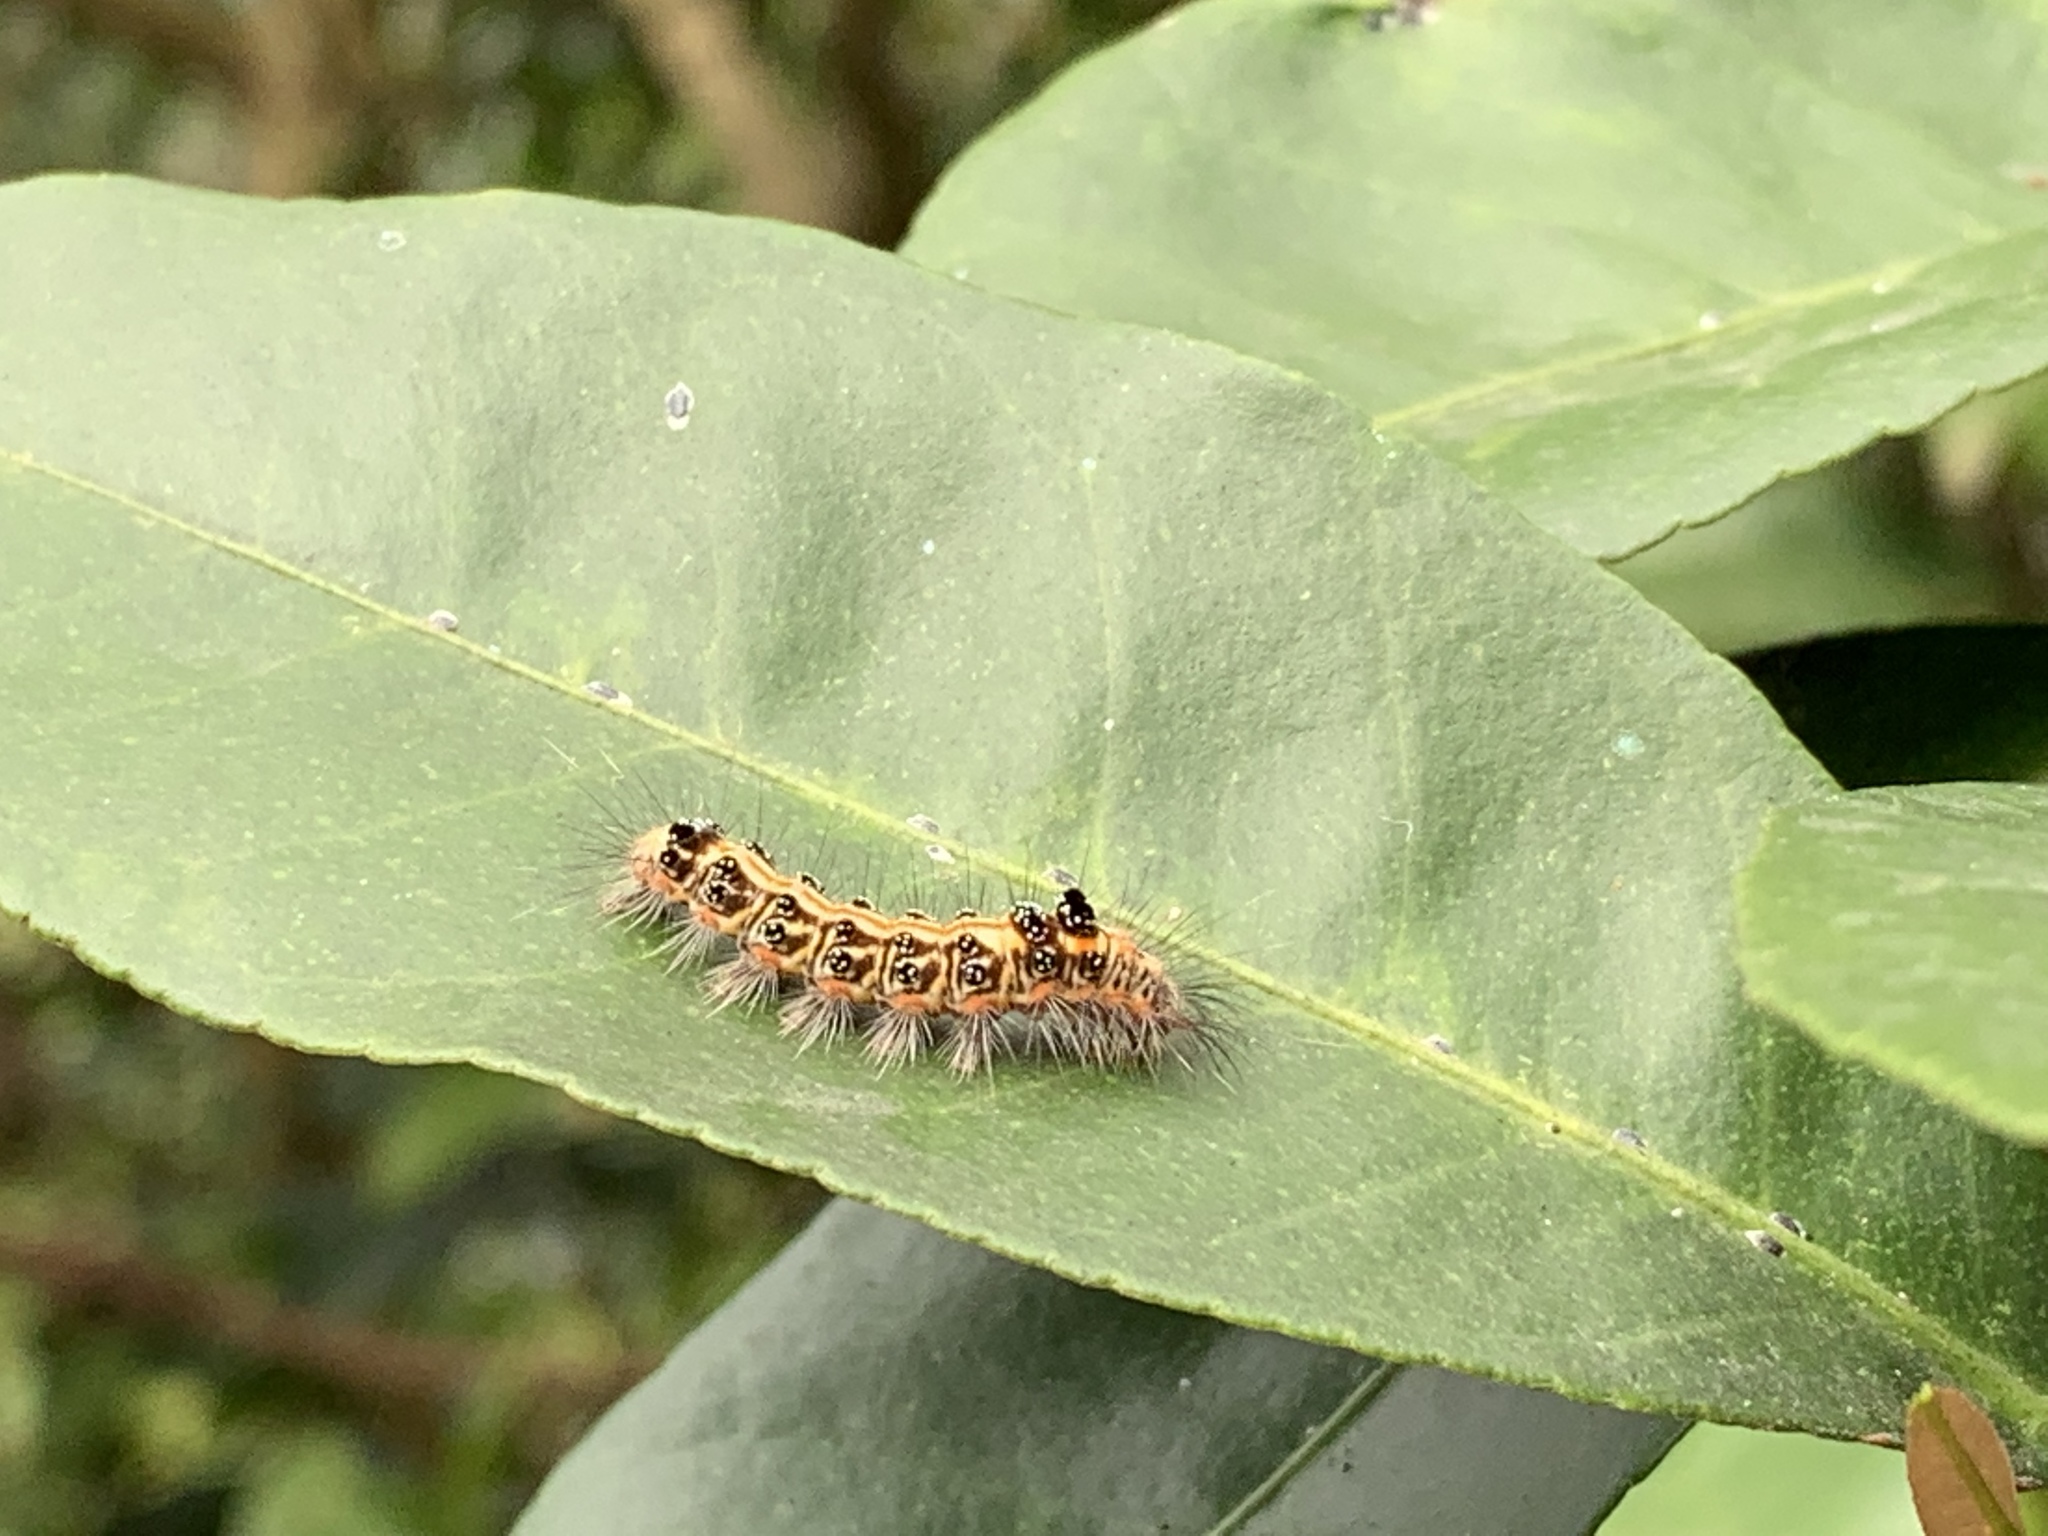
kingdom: Animalia
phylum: Arthropoda
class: Insecta
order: Lepidoptera
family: Erebidae
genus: Euproctis
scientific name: Euproctis taiwana
